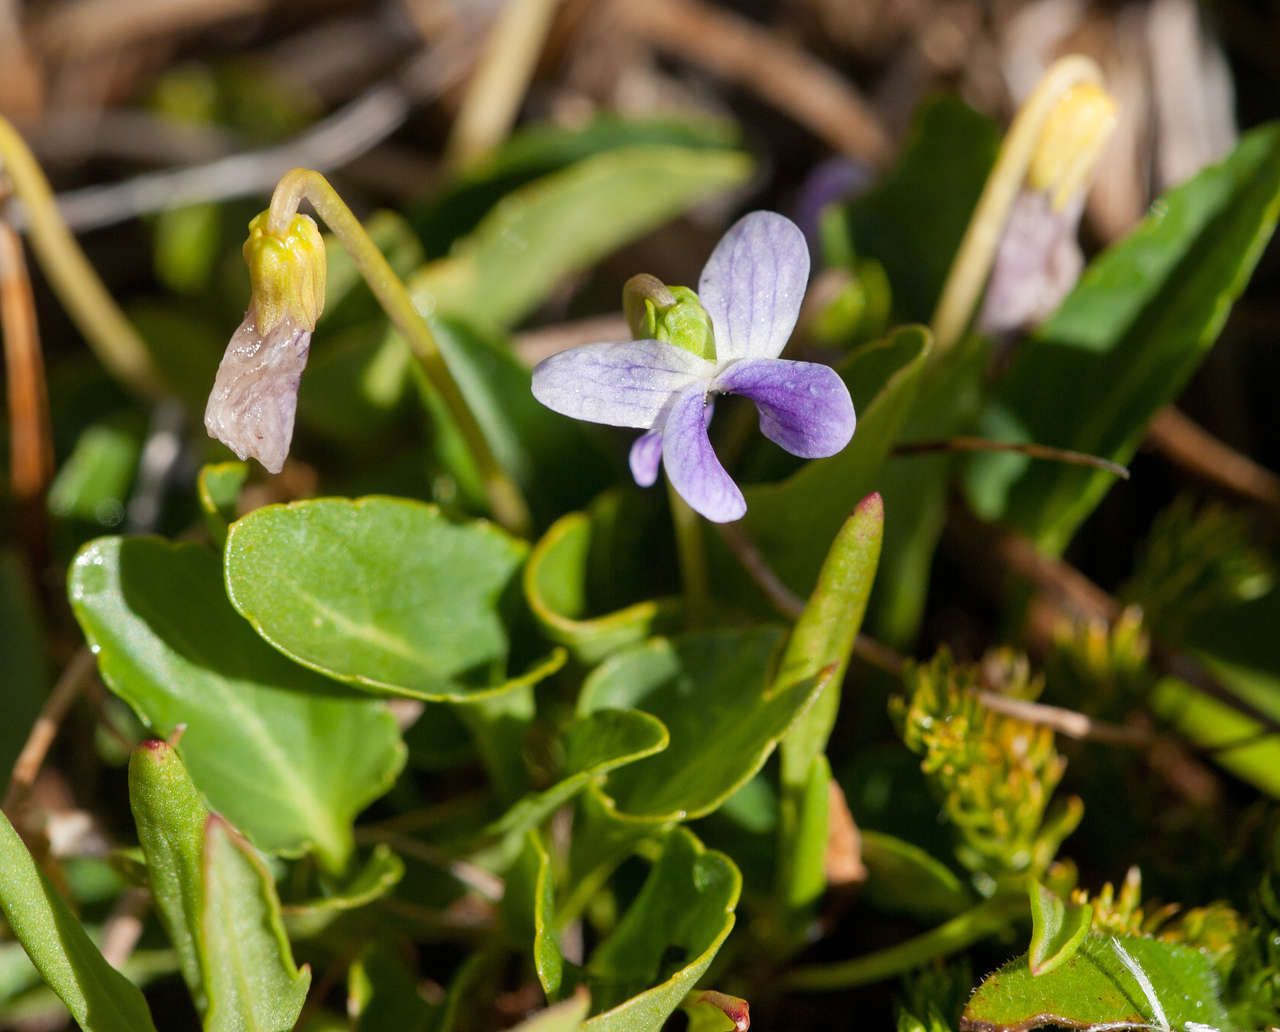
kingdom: Plantae
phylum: Tracheophyta
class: Magnoliopsida
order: Malpighiales
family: Violaceae
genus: Viola
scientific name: Viola betonicifolia
